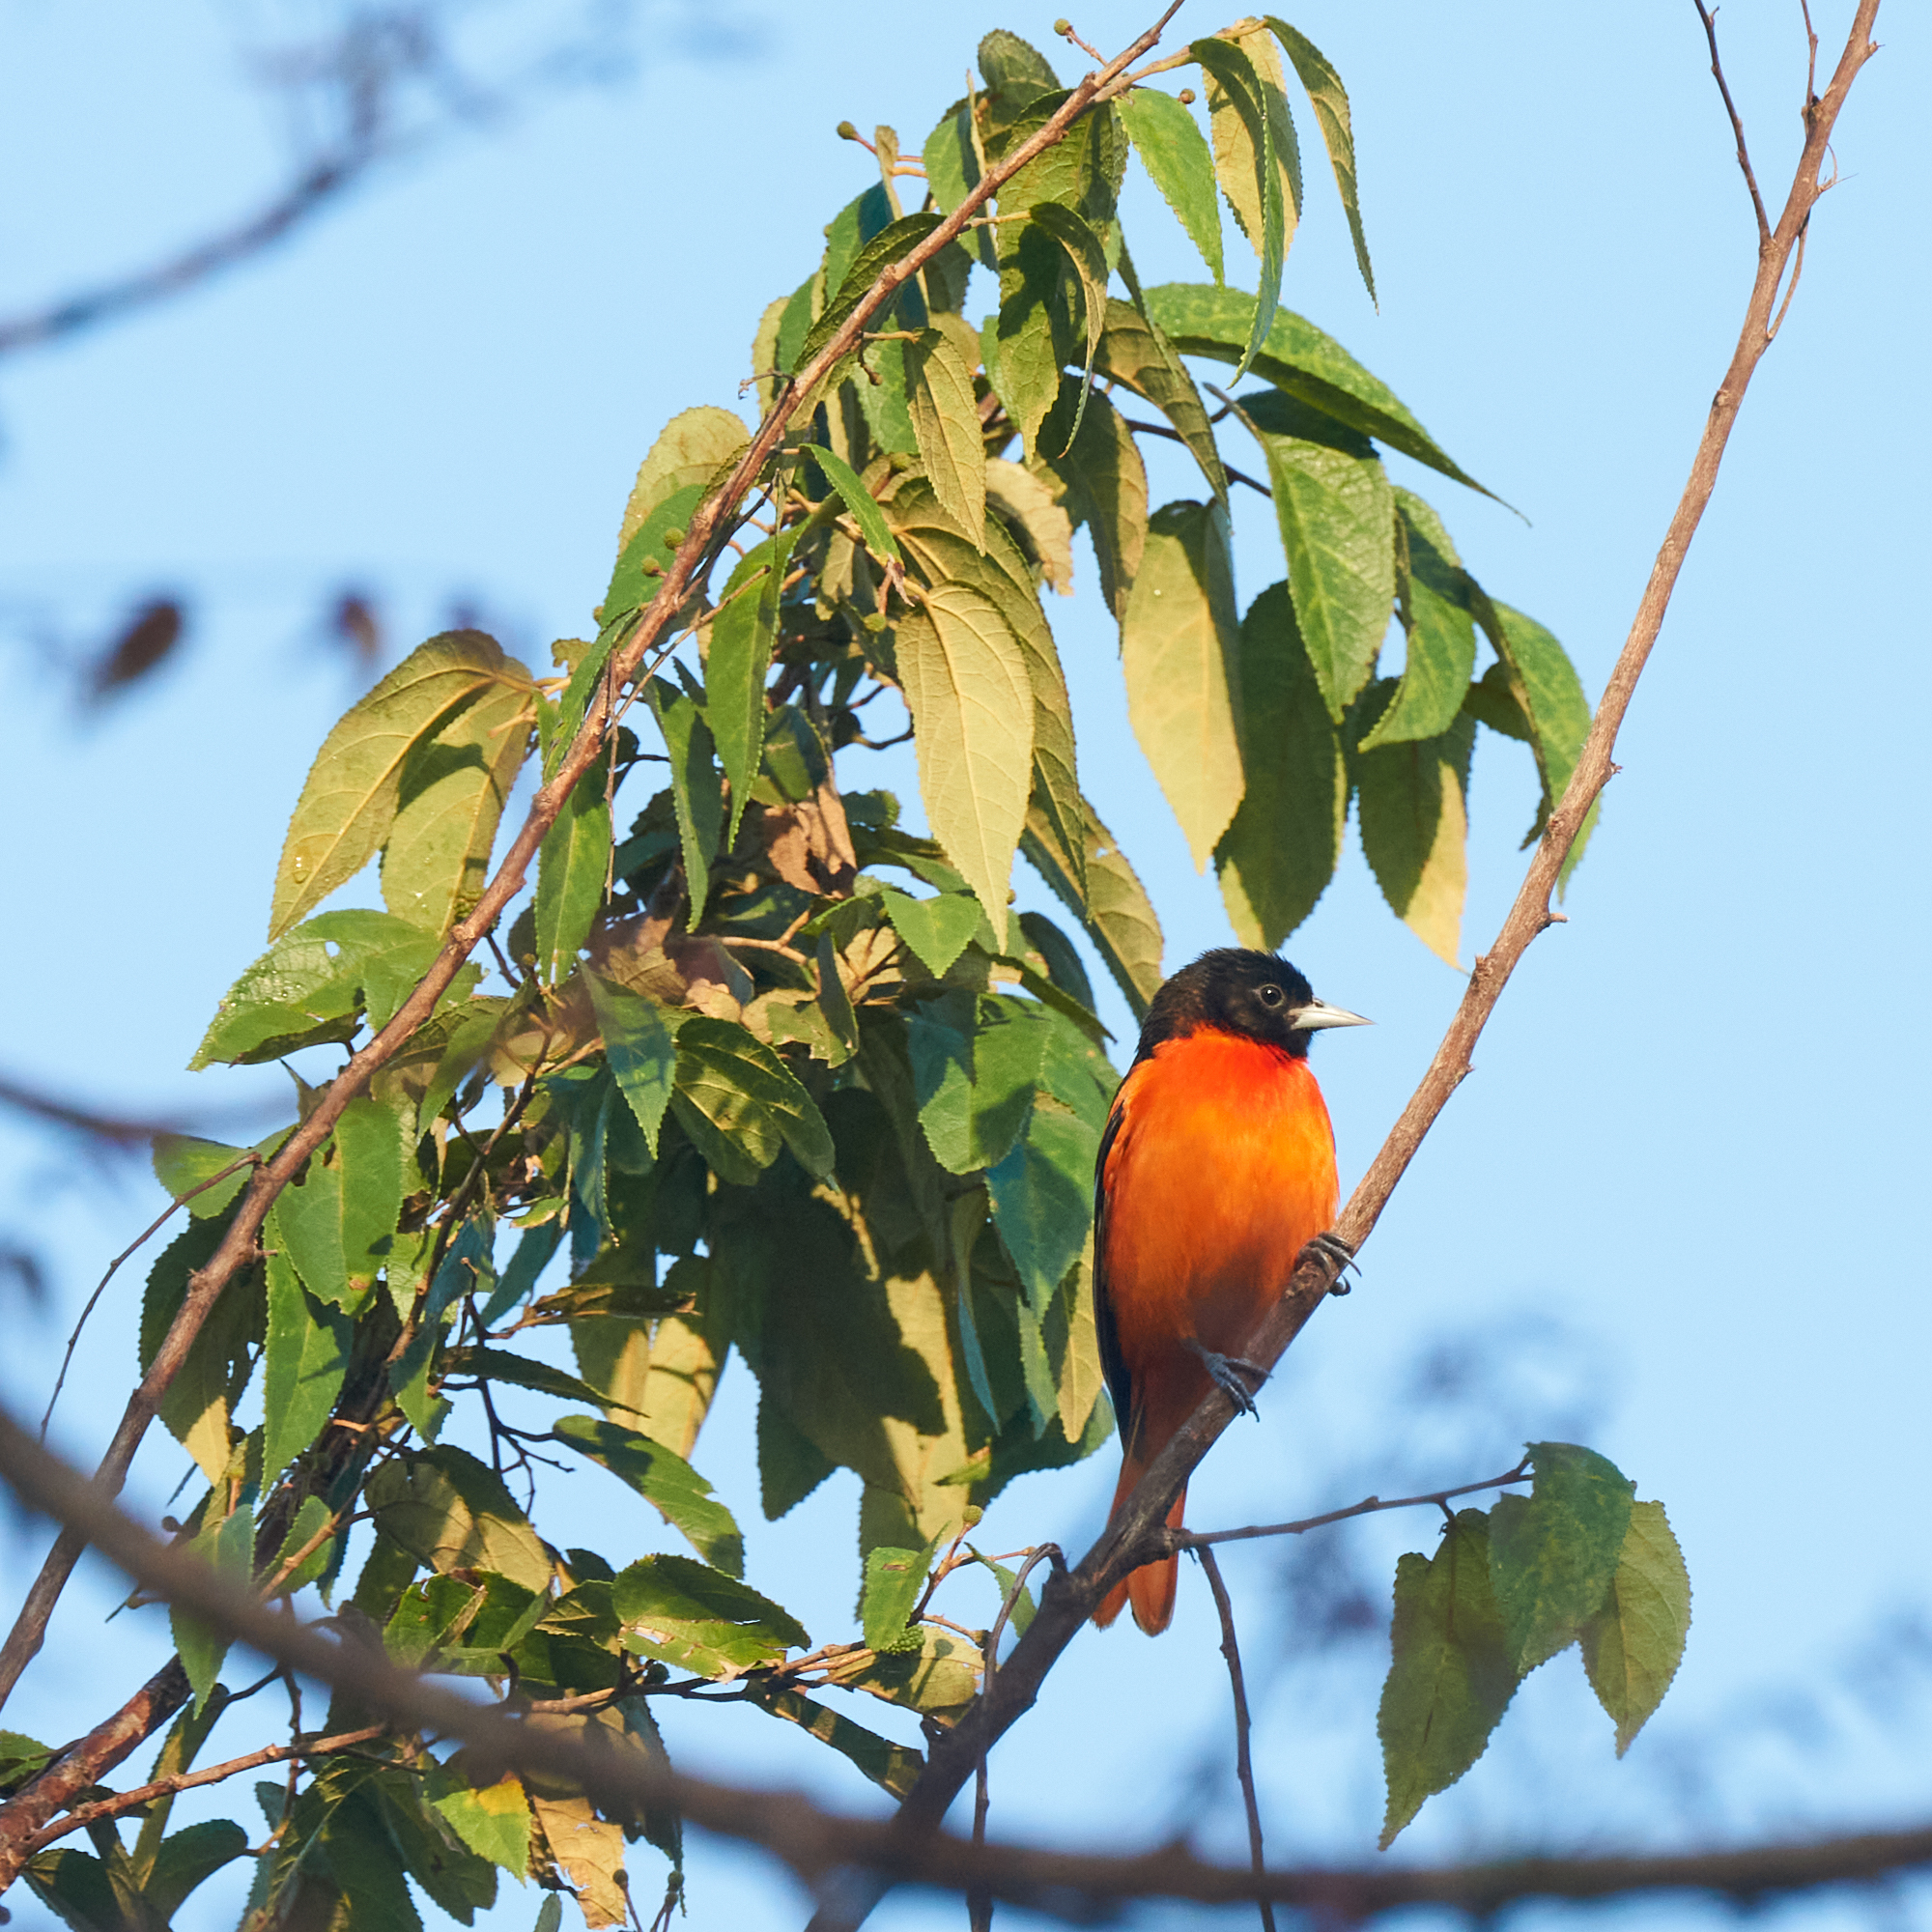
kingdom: Animalia
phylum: Chordata
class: Aves
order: Passeriformes
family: Icteridae
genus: Icterus
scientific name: Icterus galbula
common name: Baltimore oriole
